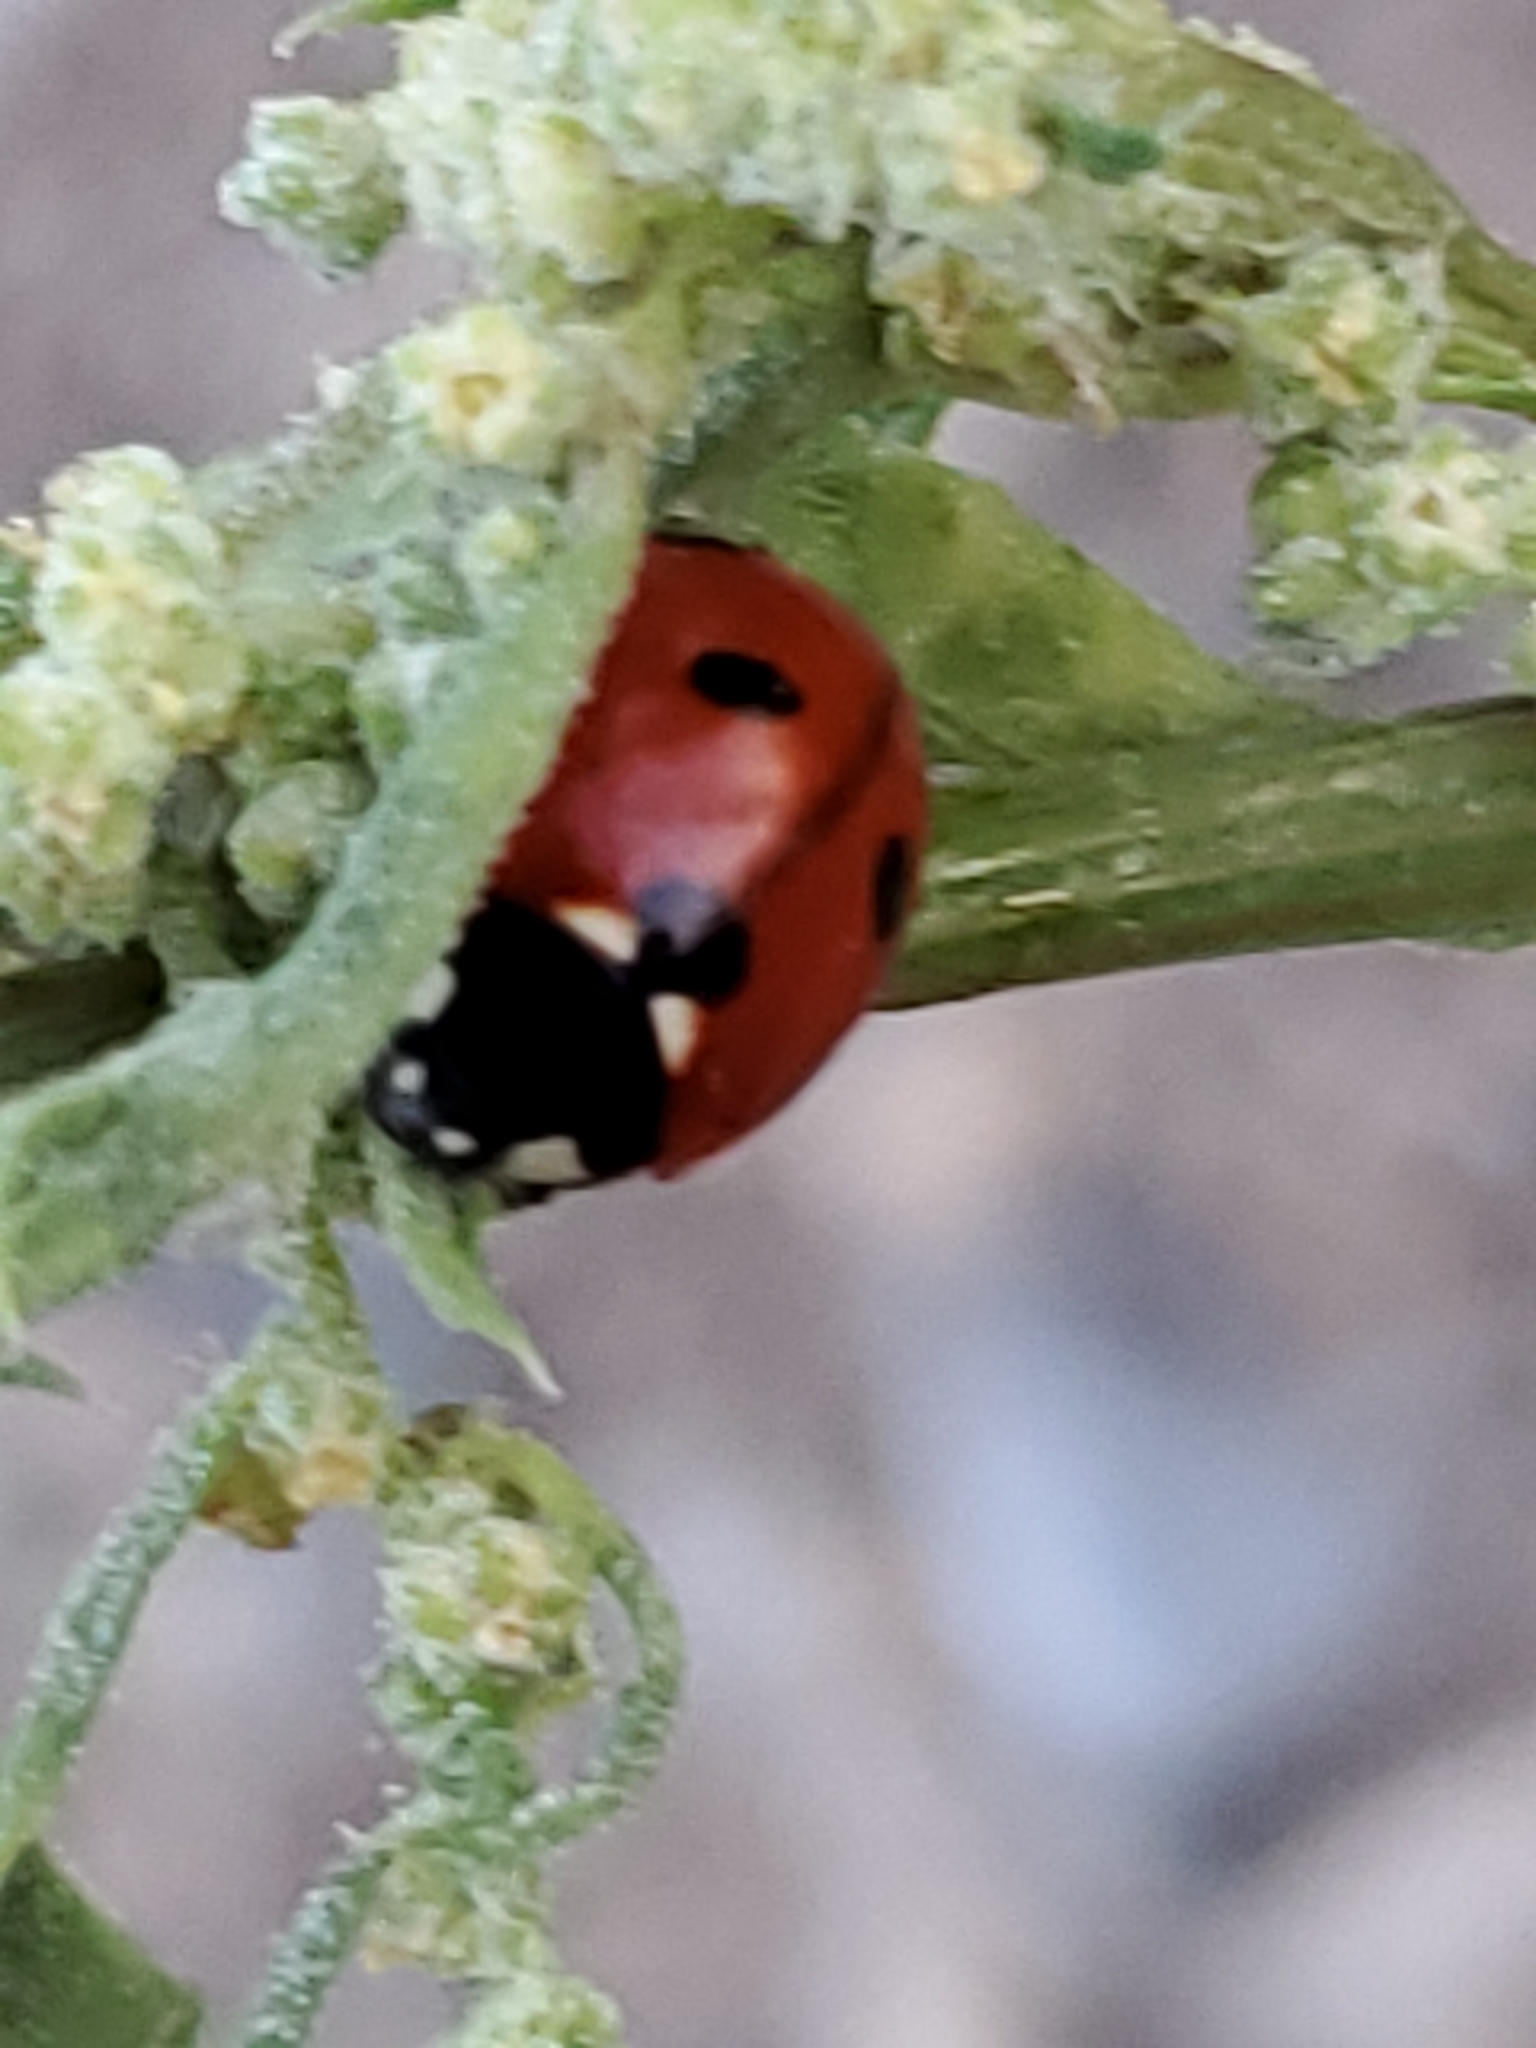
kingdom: Animalia
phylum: Arthropoda
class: Insecta
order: Coleoptera
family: Coccinellidae
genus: Coccinella
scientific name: Coccinella septempunctata
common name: Sevenspotted lady beetle
